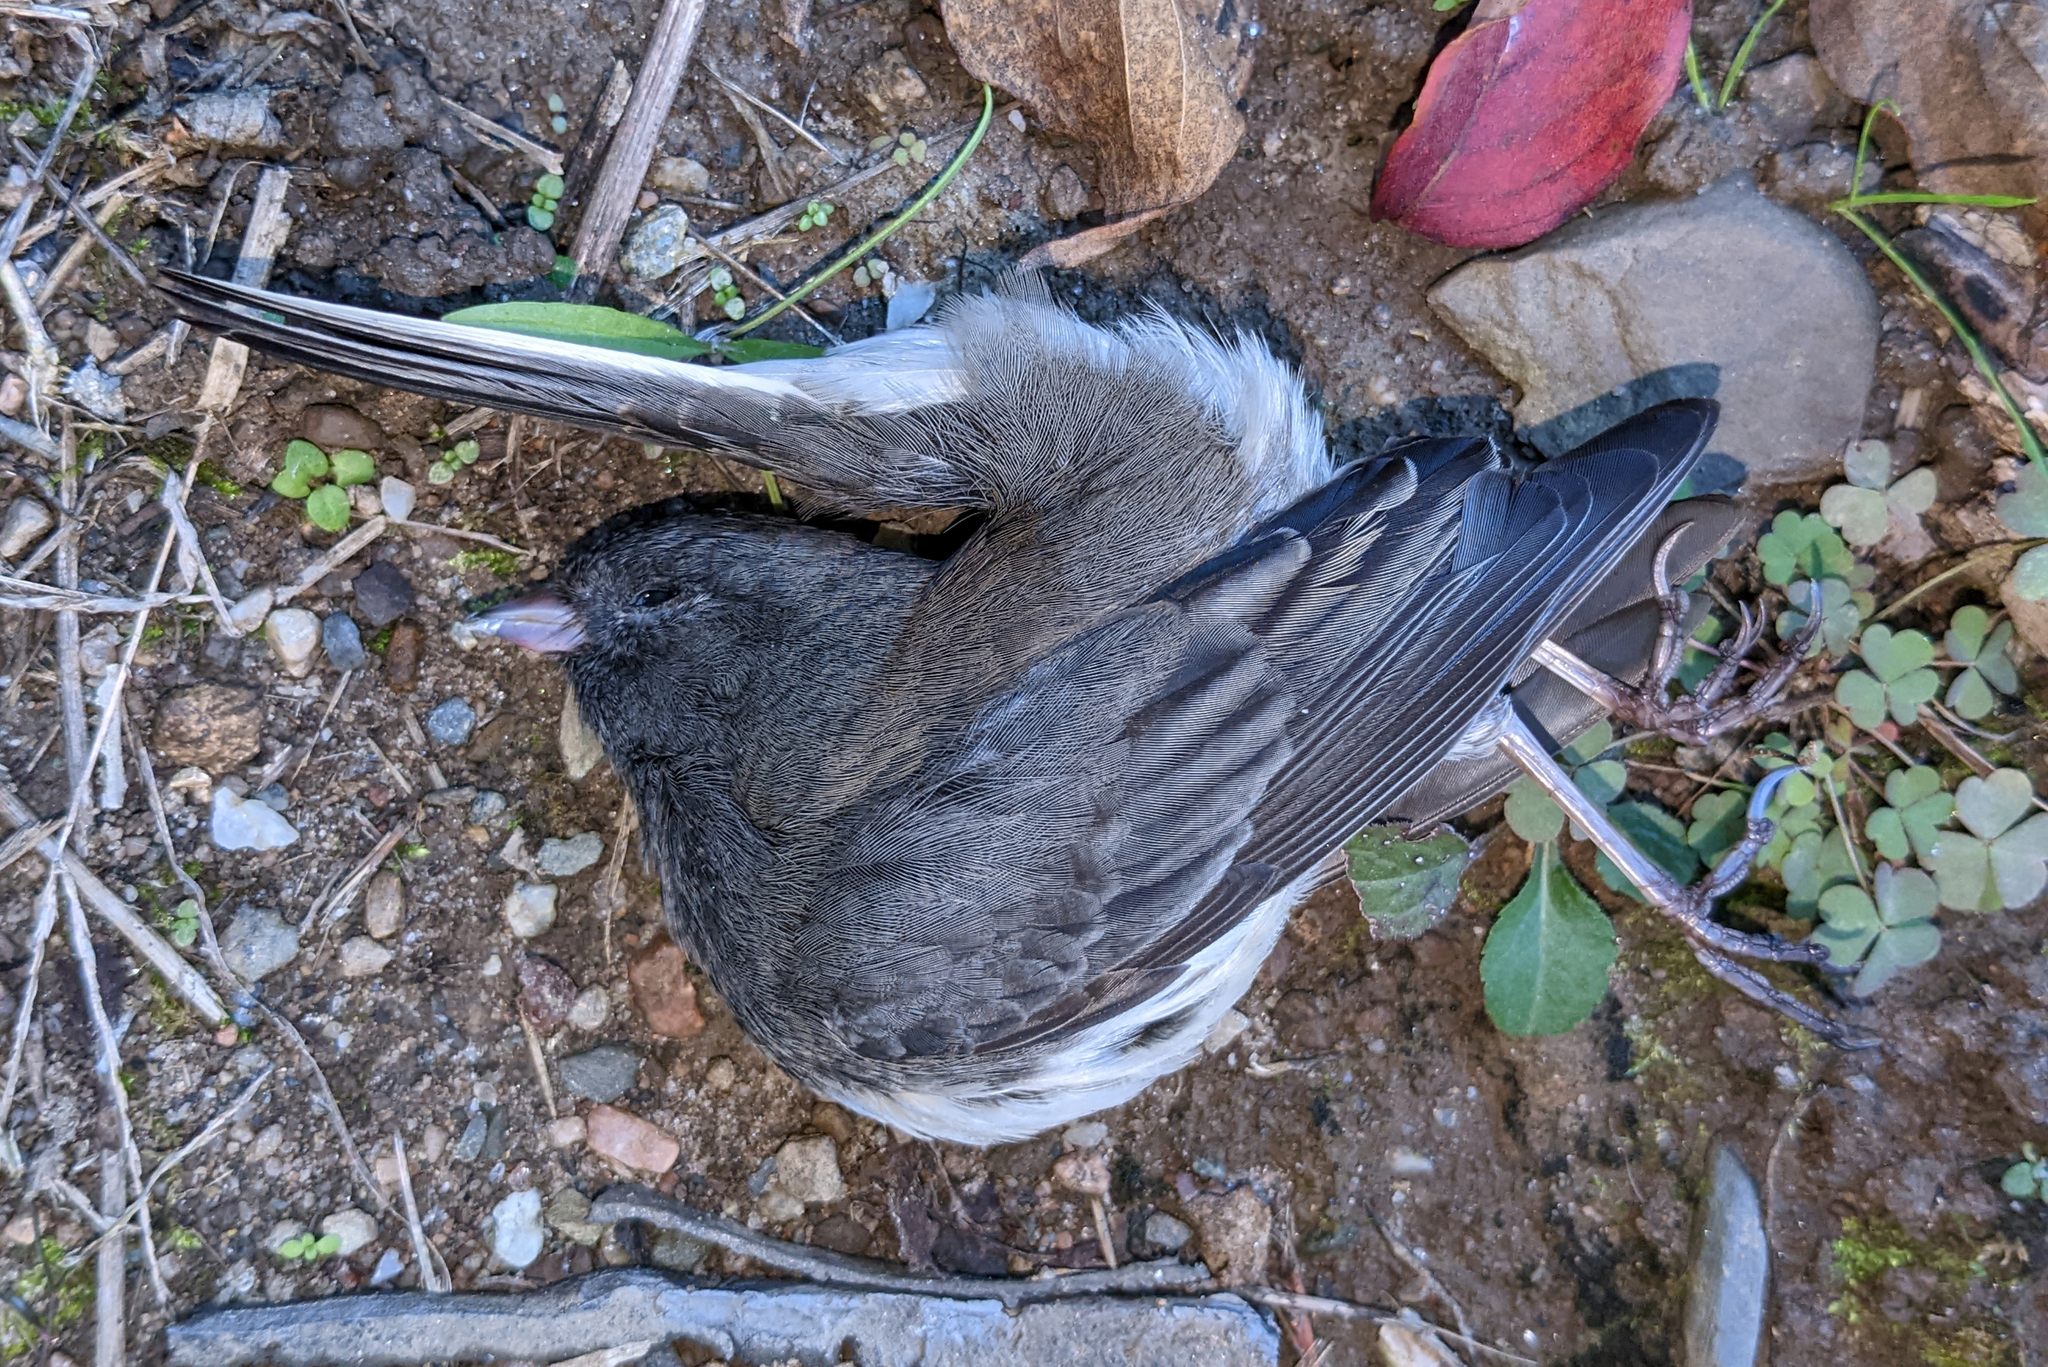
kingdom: Animalia
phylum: Chordata
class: Aves
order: Passeriformes
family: Passerellidae
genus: Junco
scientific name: Junco hyemalis
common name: Dark-eyed junco
